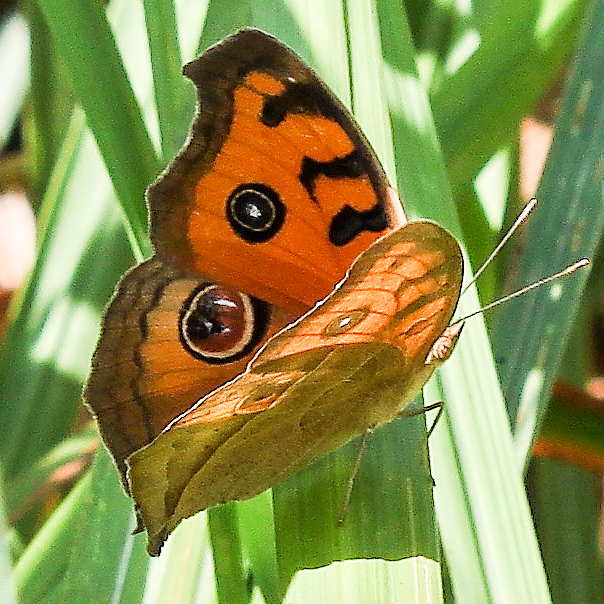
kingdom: Animalia
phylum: Arthropoda
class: Insecta
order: Lepidoptera
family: Nymphalidae
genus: Junonia
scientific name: Junonia almana
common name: Peacock pansy
